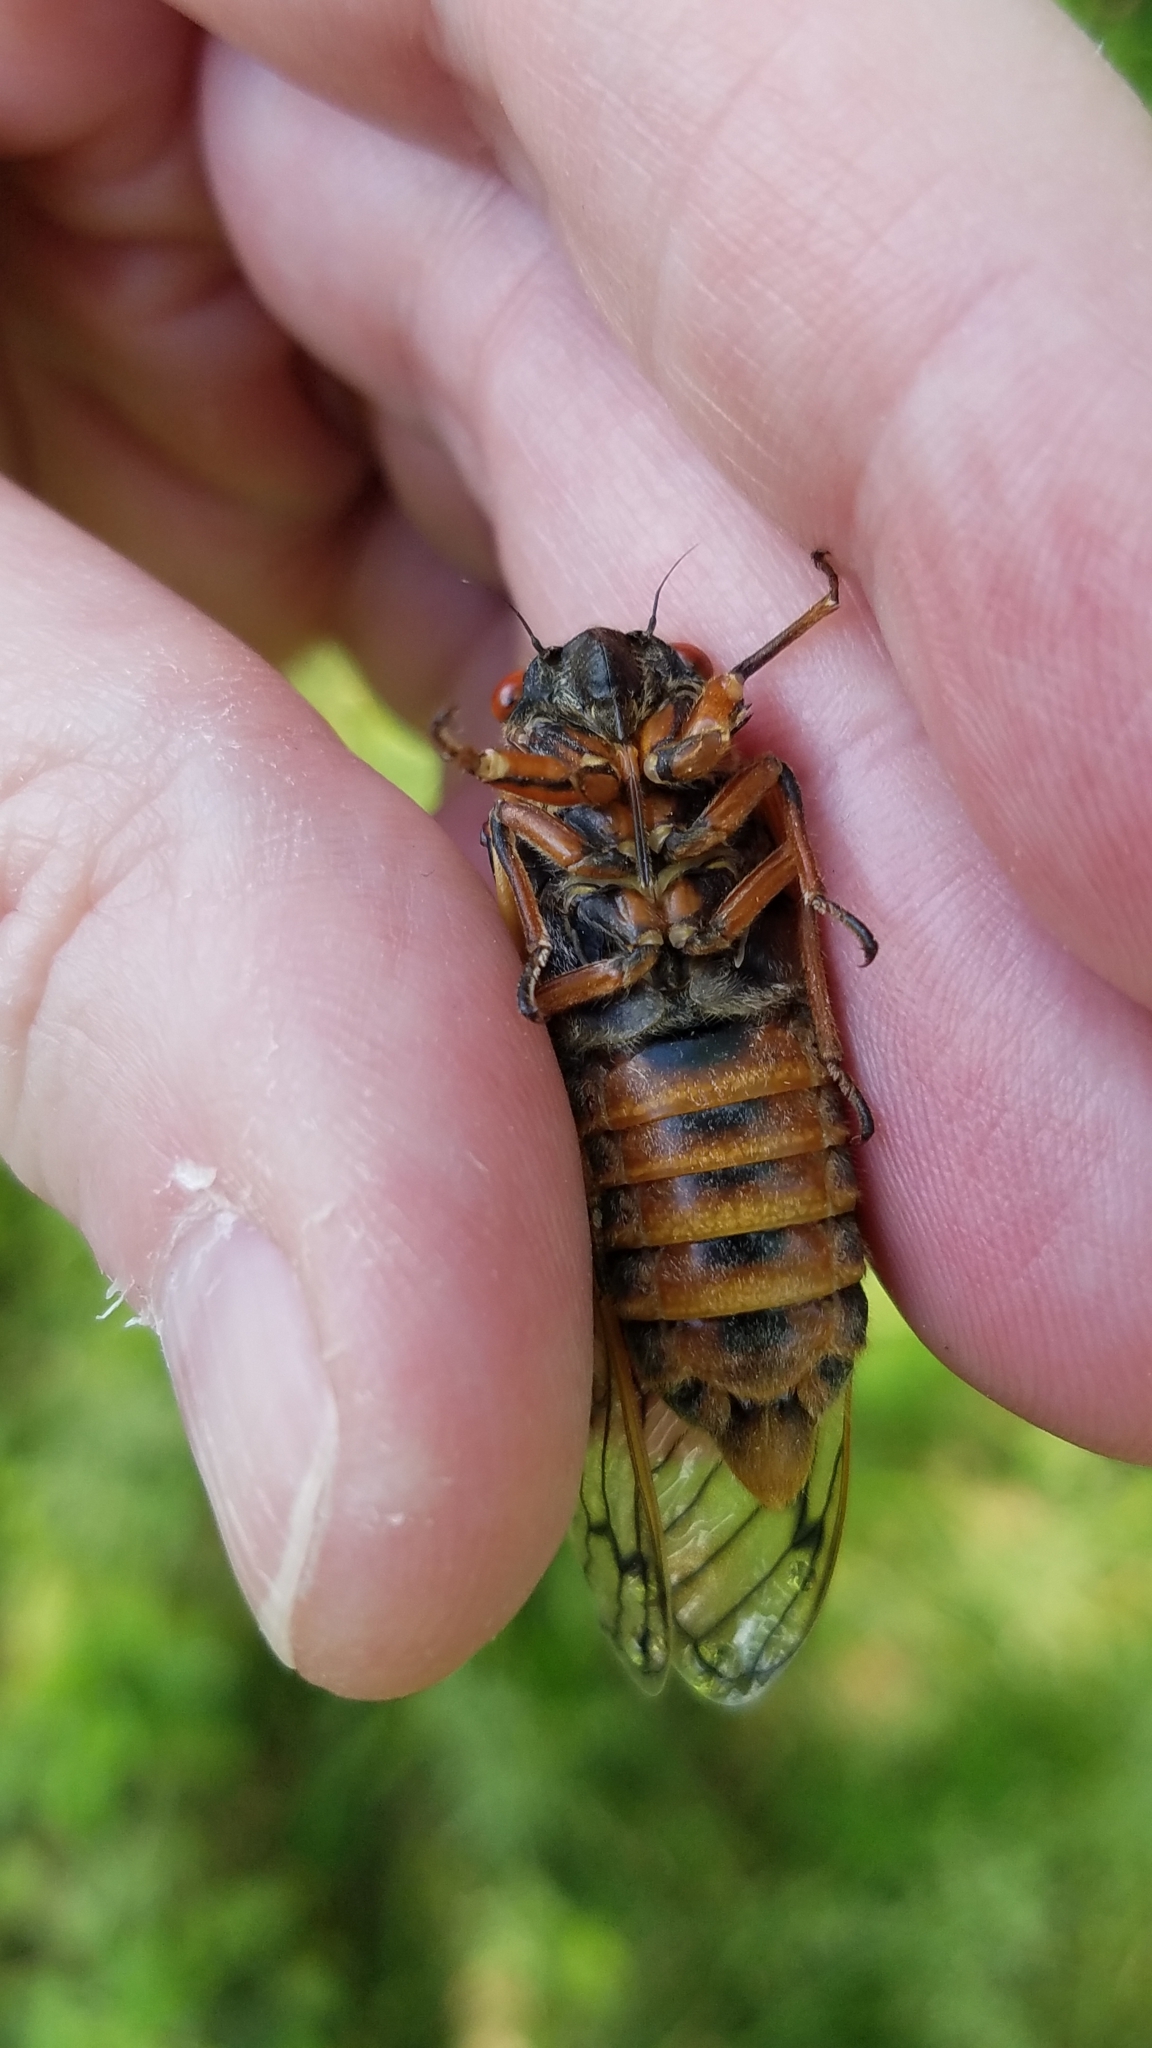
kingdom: Animalia
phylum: Arthropoda
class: Insecta
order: Hemiptera
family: Cicadidae
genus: Magicicada
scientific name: Magicicada septendecim
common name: Periodical cicada
